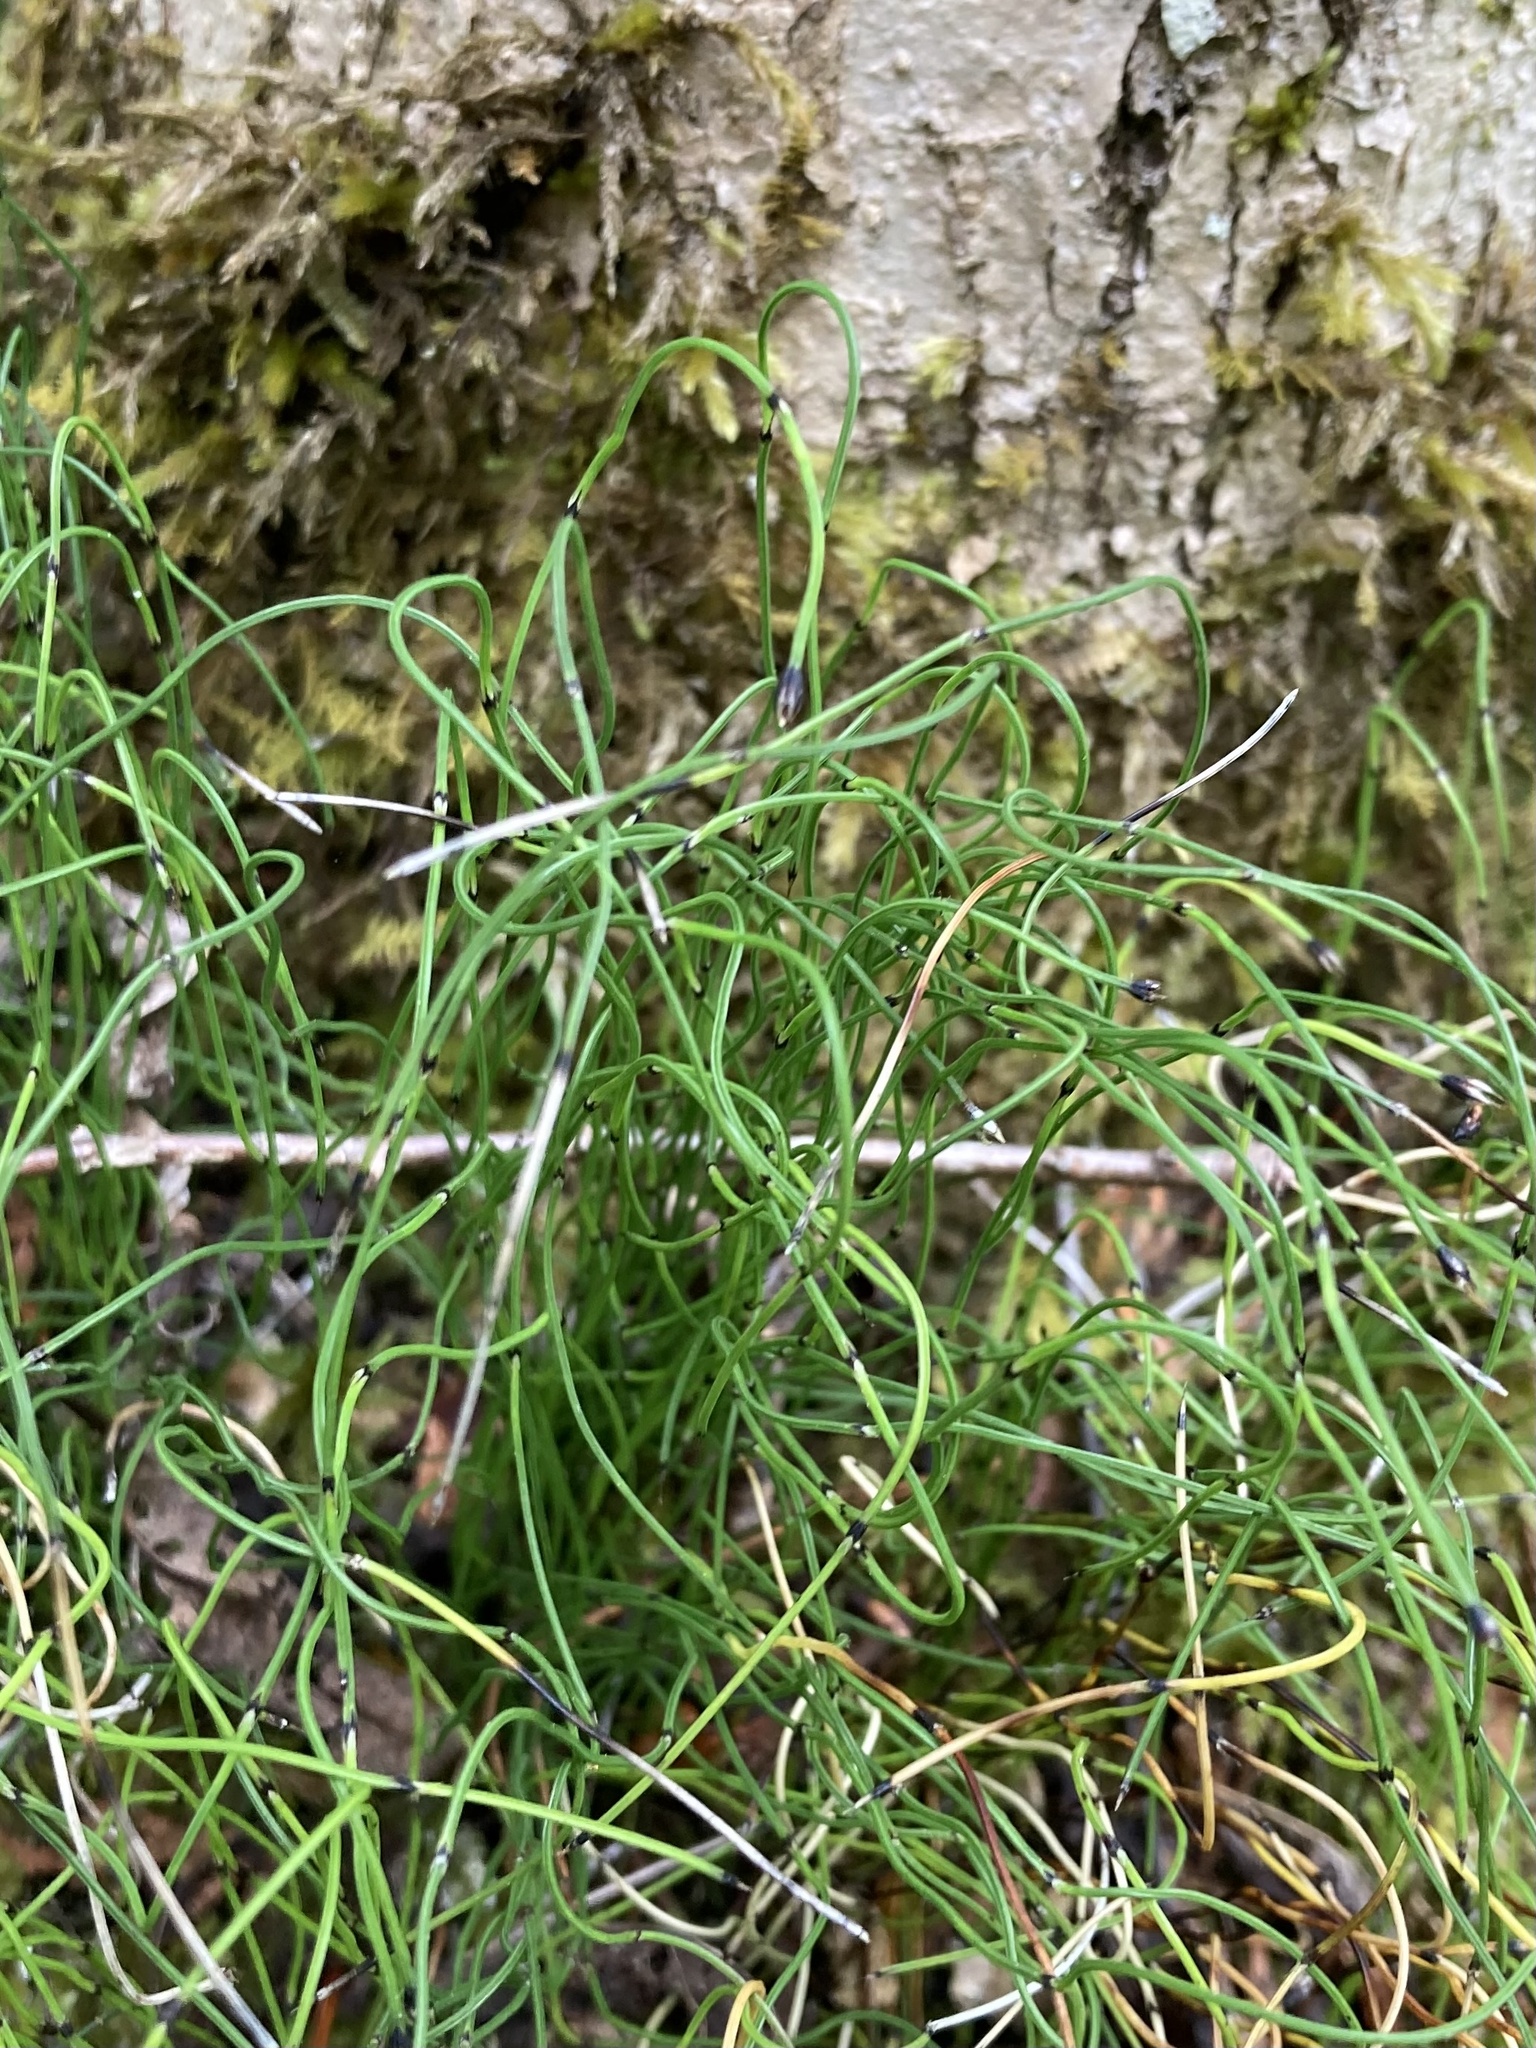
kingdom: Plantae
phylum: Tracheophyta
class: Polypodiopsida
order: Equisetales
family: Equisetaceae
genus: Equisetum
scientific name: Equisetum scirpoides
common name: Delicate horsetail
